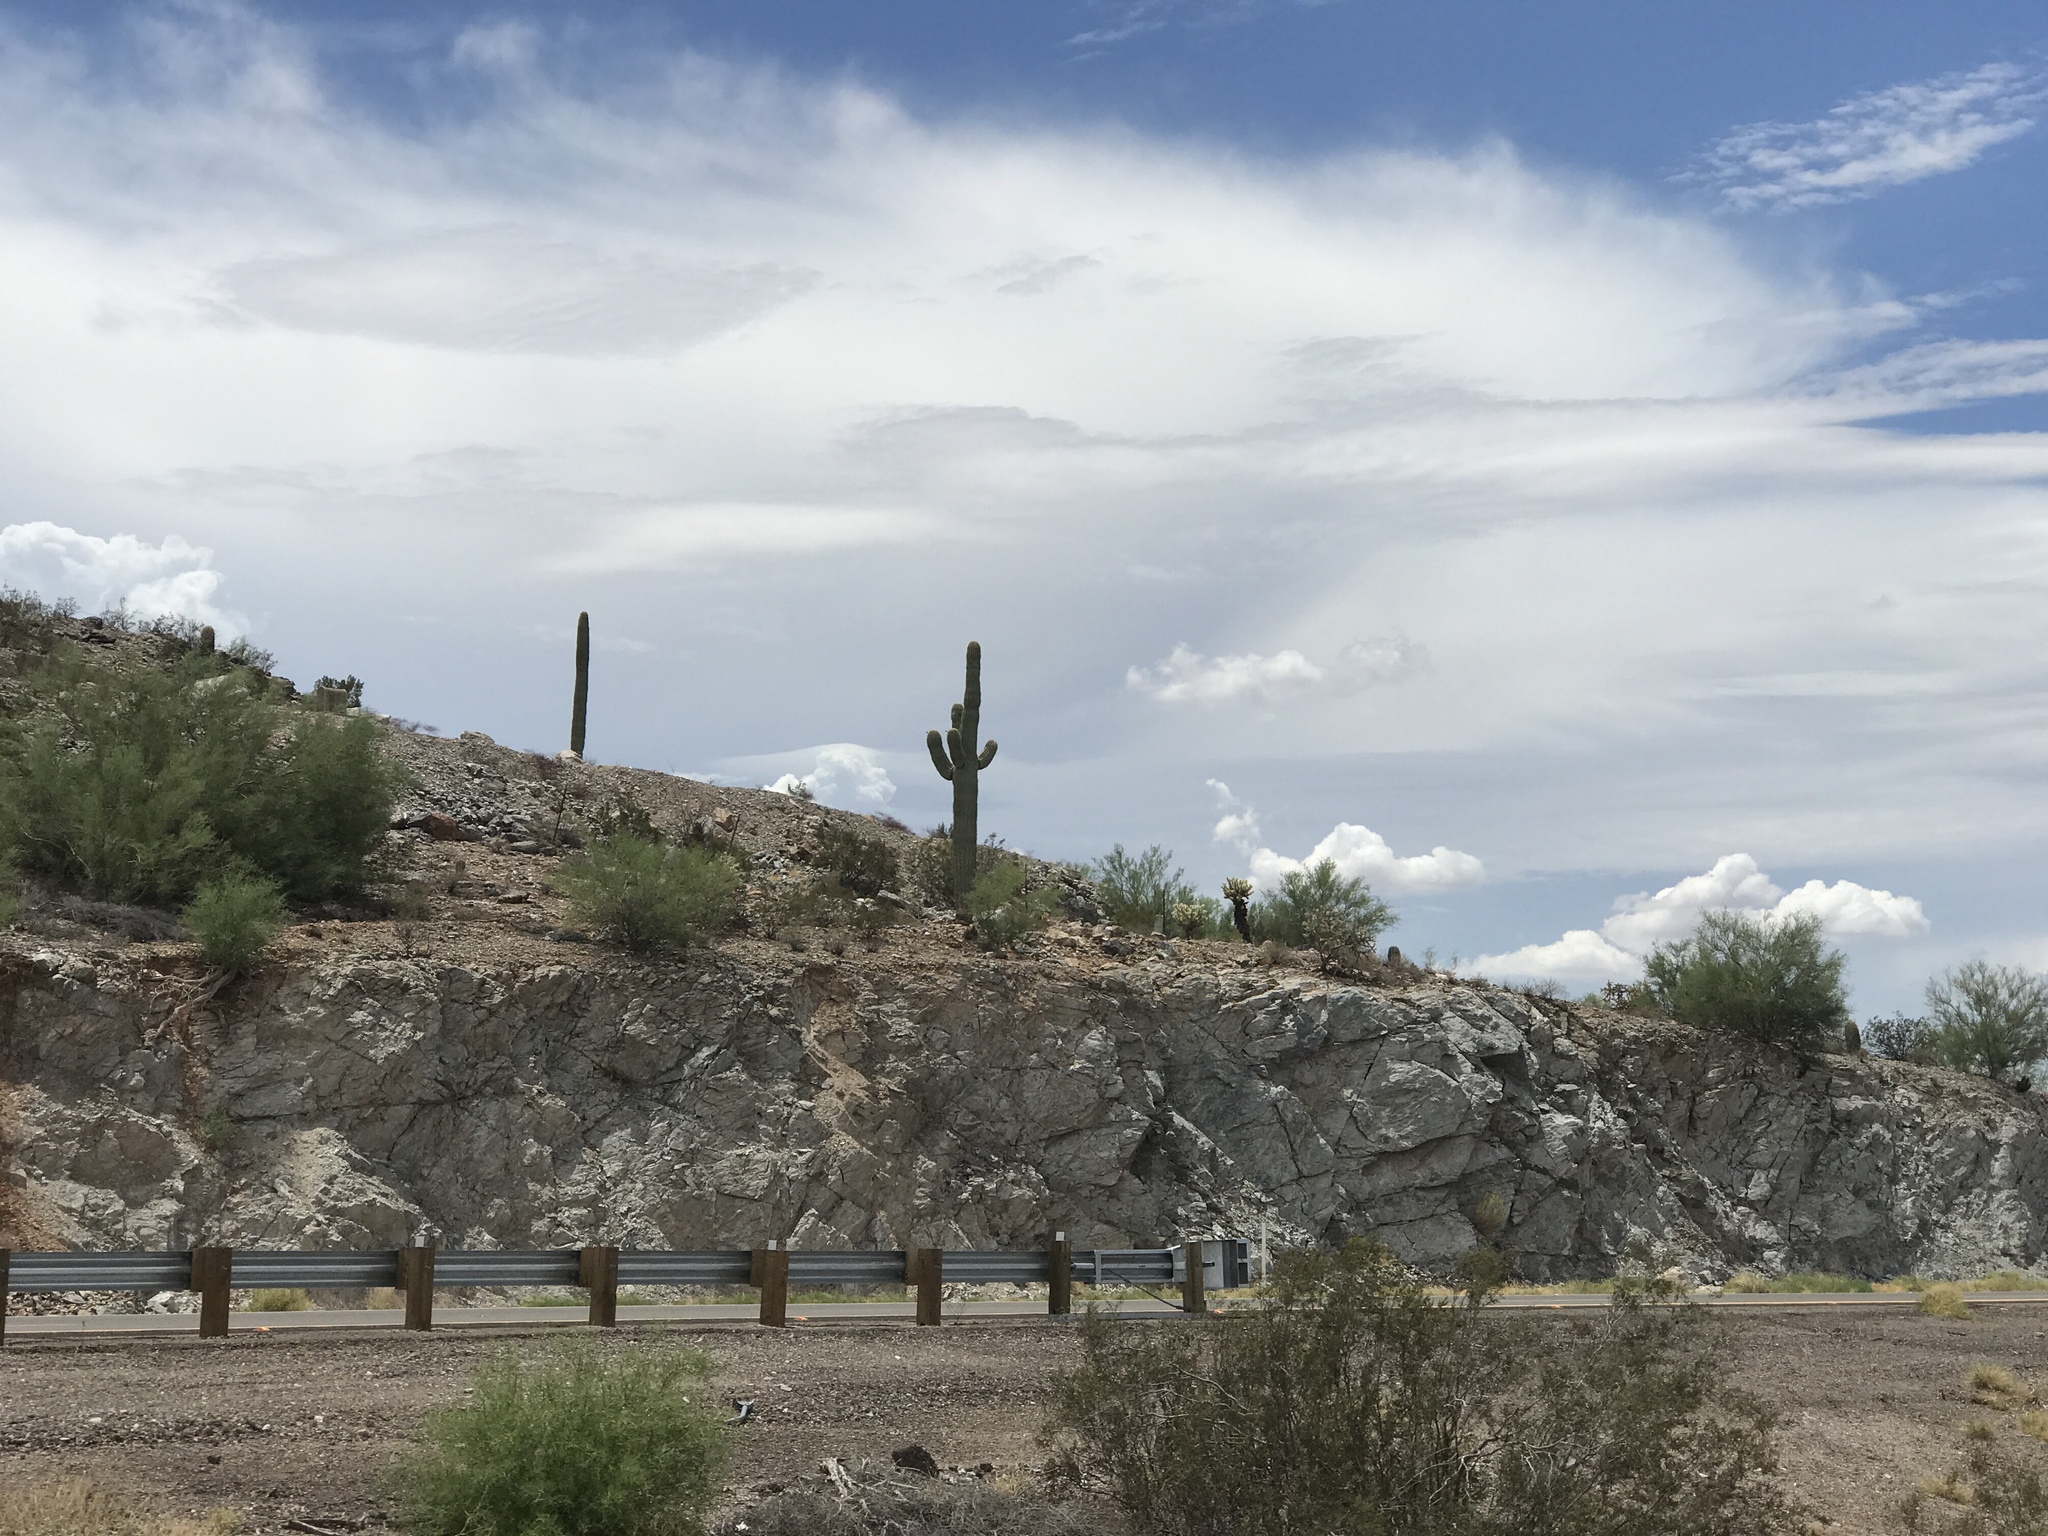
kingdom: Plantae
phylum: Tracheophyta
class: Magnoliopsida
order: Caryophyllales
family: Cactaceae
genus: Carnegiea
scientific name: Carnegiea gigantea
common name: Saguaro
